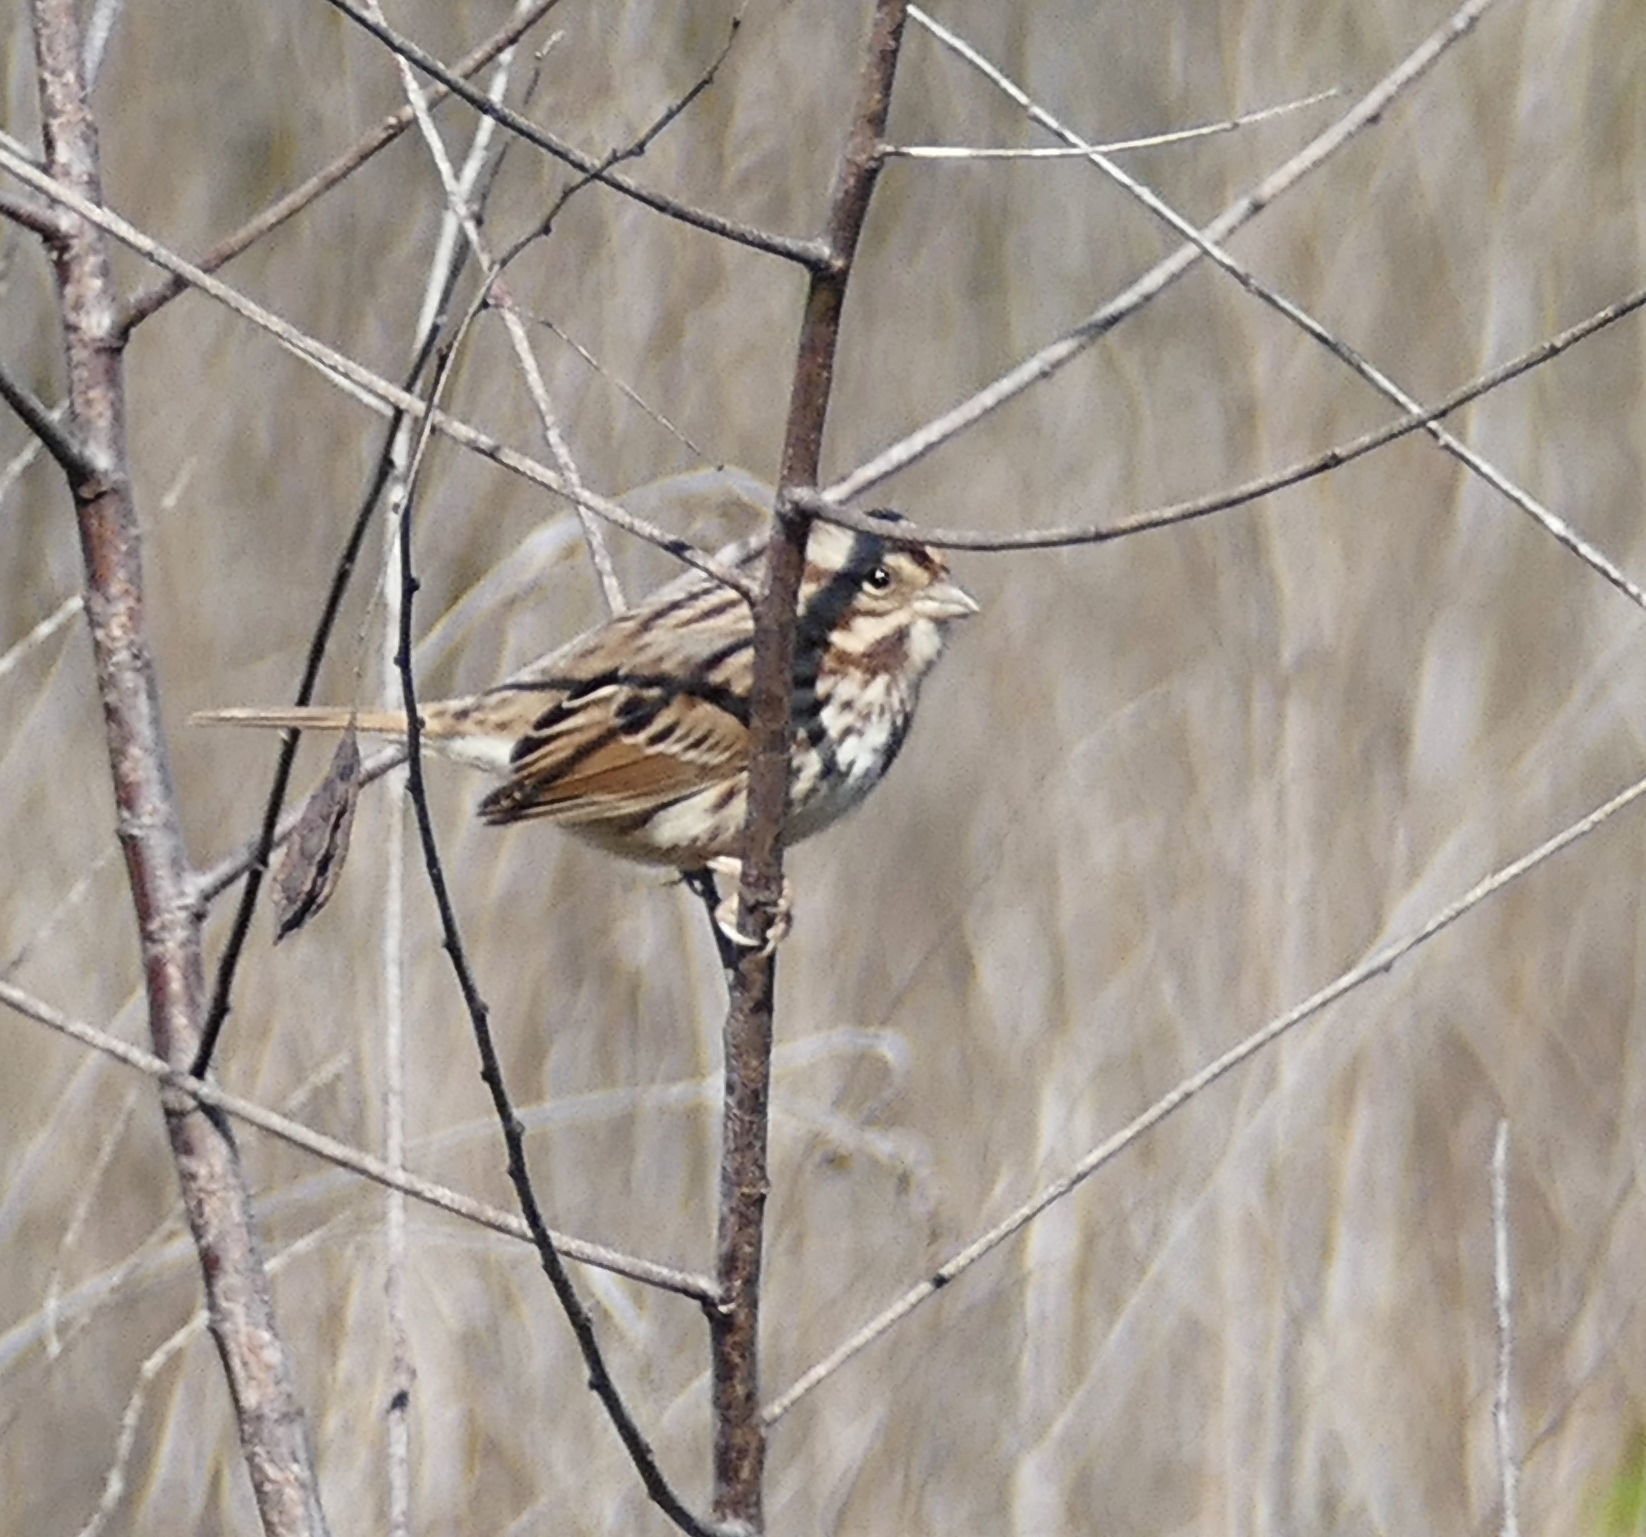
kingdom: Animalia
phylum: Chordata
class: Aves
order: Passeriformes
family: Passerellidae
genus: Melospiza
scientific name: Melospiza melodia
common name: Song sparrow
